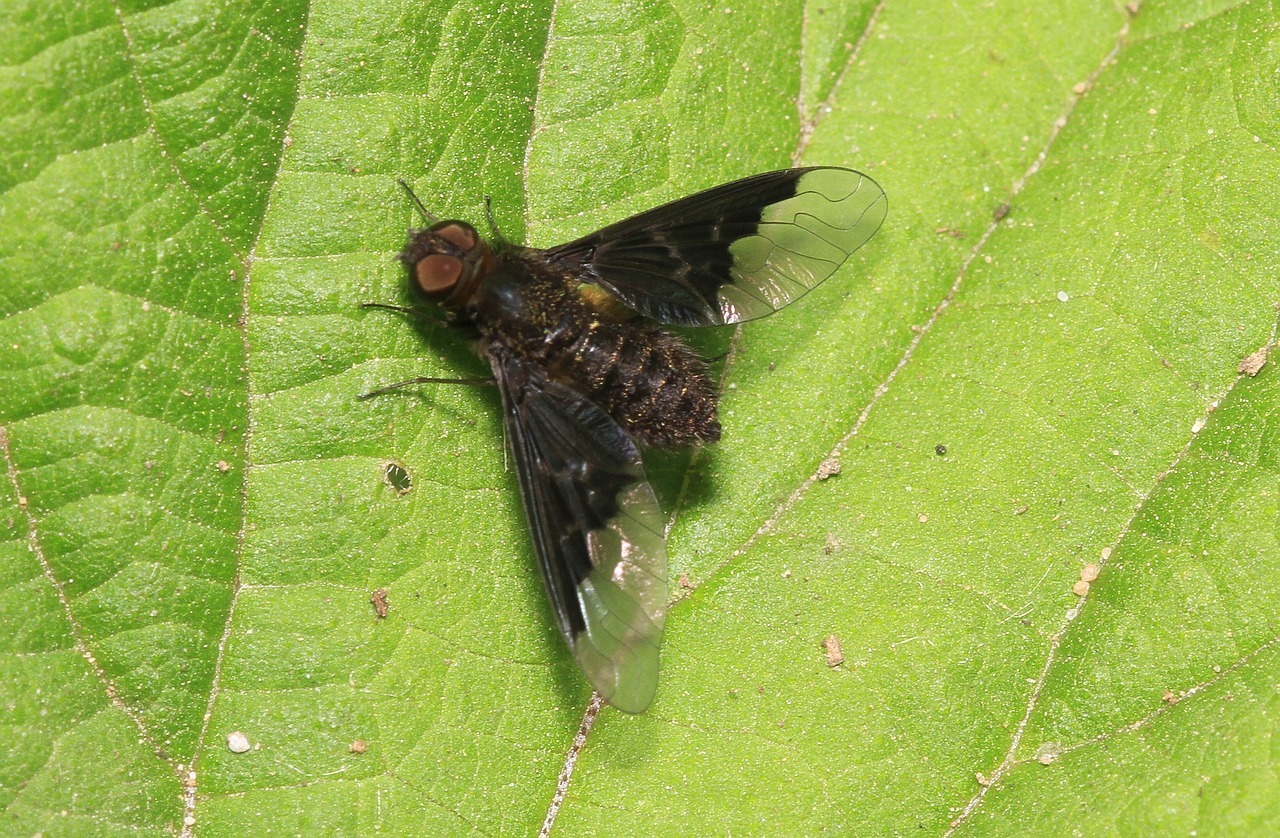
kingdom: Animalia
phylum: Arthropoda
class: Insecta
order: Diptera
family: Bombyliidae
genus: Hemipenthes
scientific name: Hemipenthes morio
